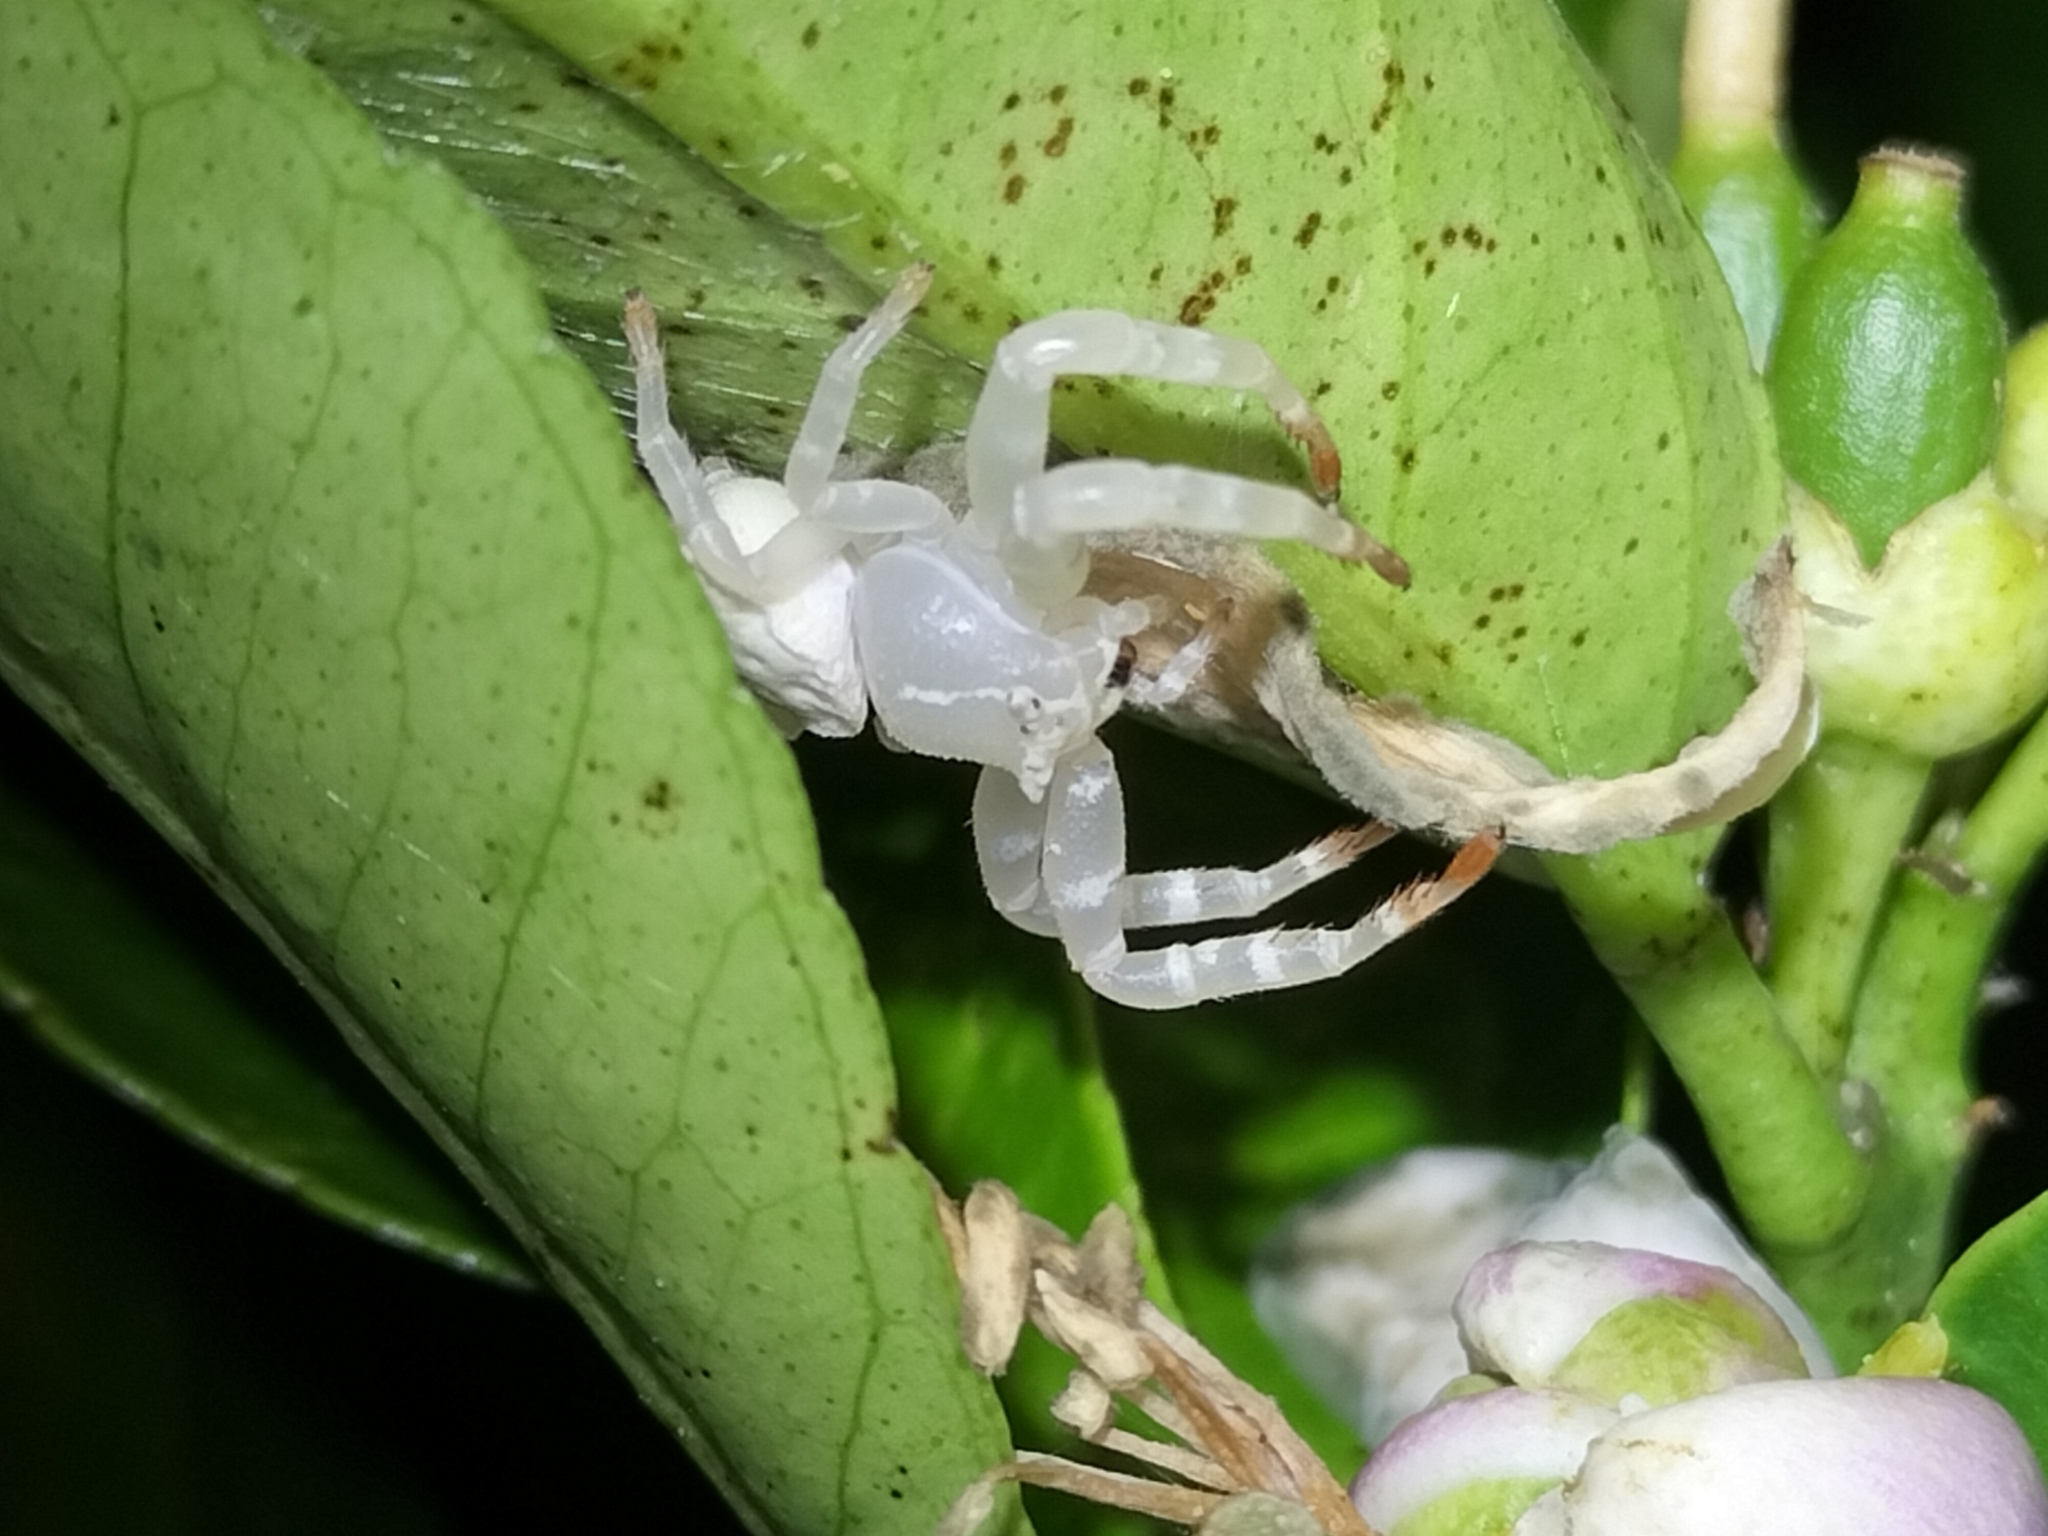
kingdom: Animalia
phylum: Arthropoda
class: Arachnida
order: Araneae
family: Thomisidae
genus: Thomisus
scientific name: Thomisus spectabilis
